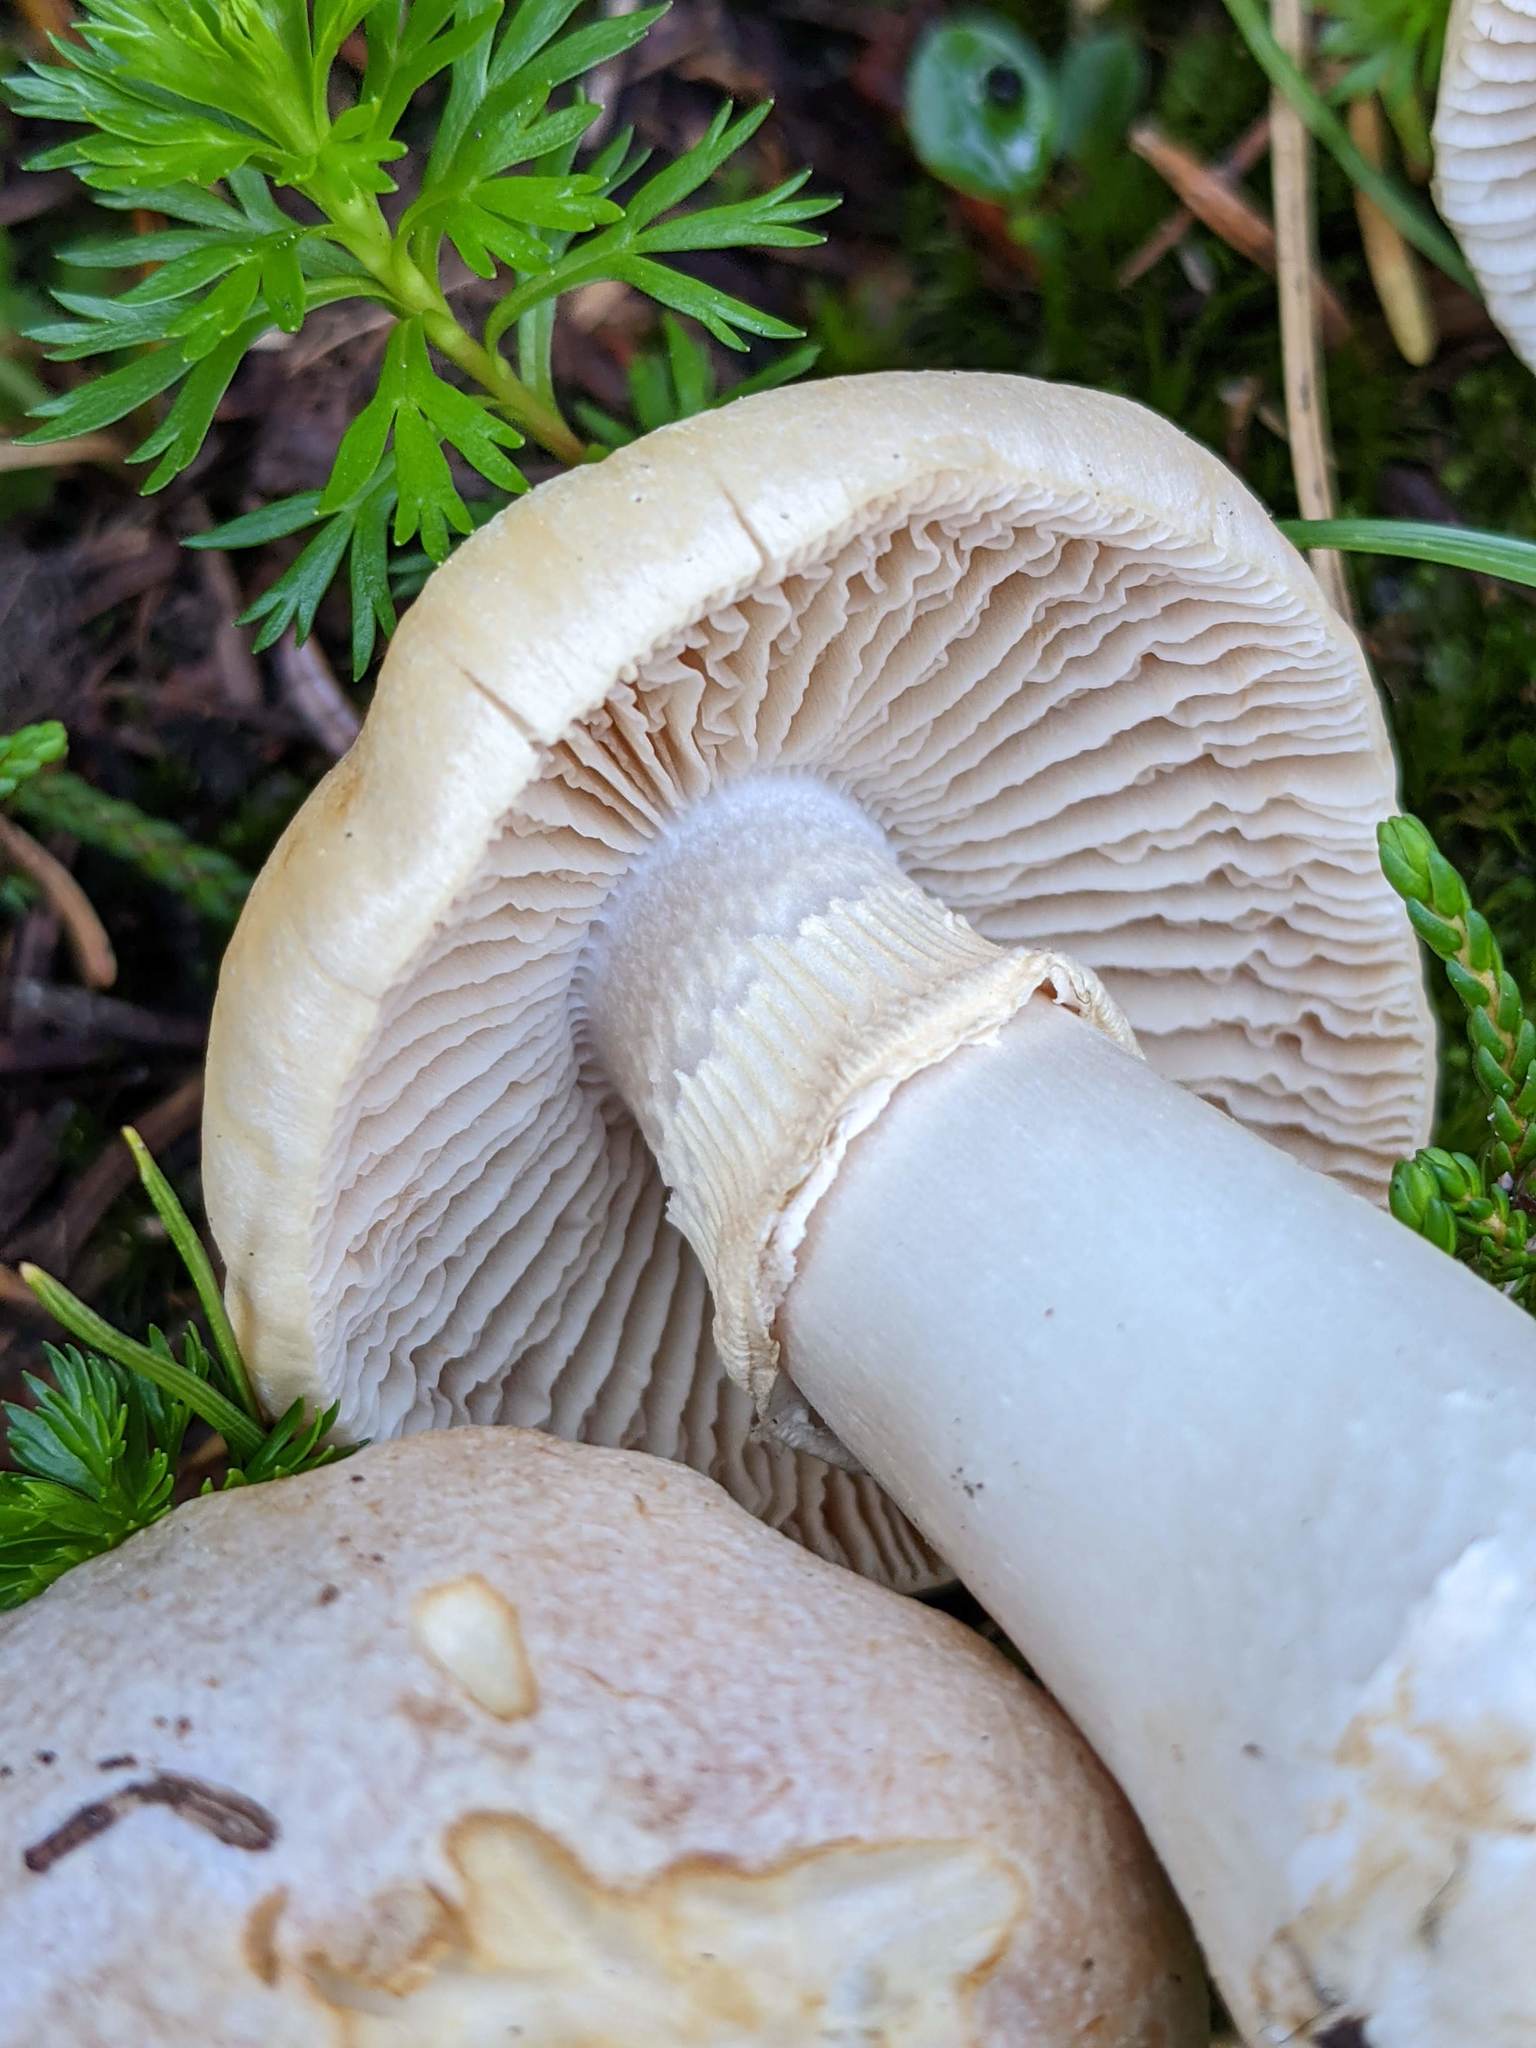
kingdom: Fungi
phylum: Basidiomycota
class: Agaricomycetes
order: Agaricales
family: Cortinariaceae
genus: Cortinarius
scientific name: Cortinarius caperatus
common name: The gypsy
